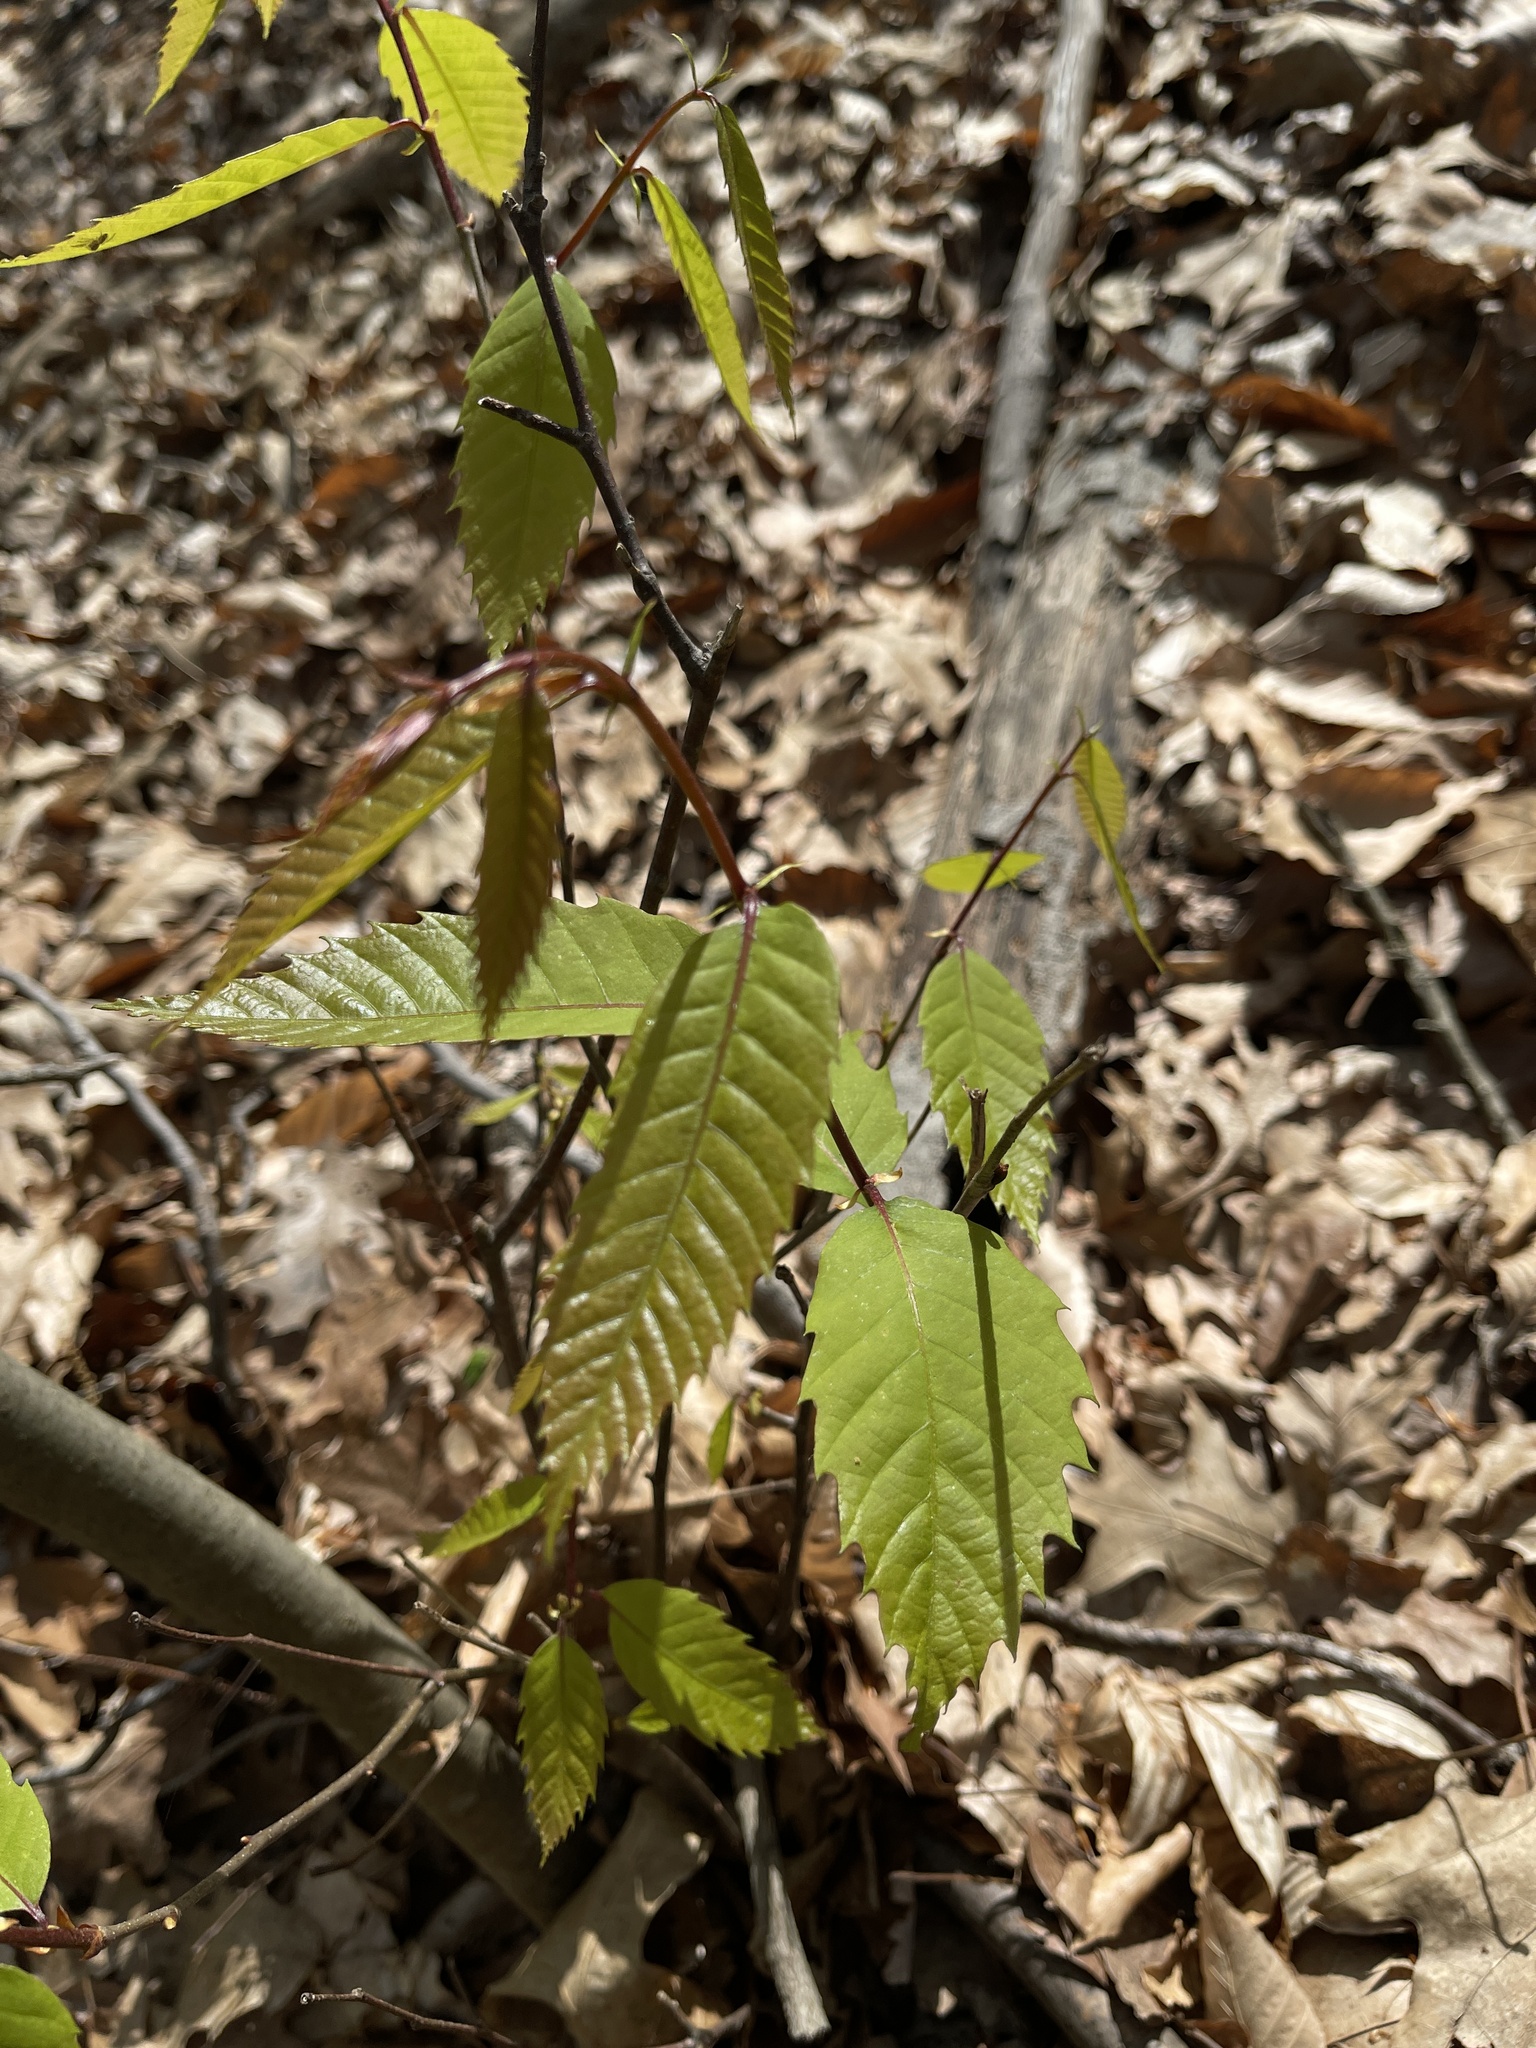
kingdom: Plantae
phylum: Tracheophyta
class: Magnoliopsida
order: Fagales
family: Fagaceae
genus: Castanea
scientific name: Castanea dentata
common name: American chestnut
